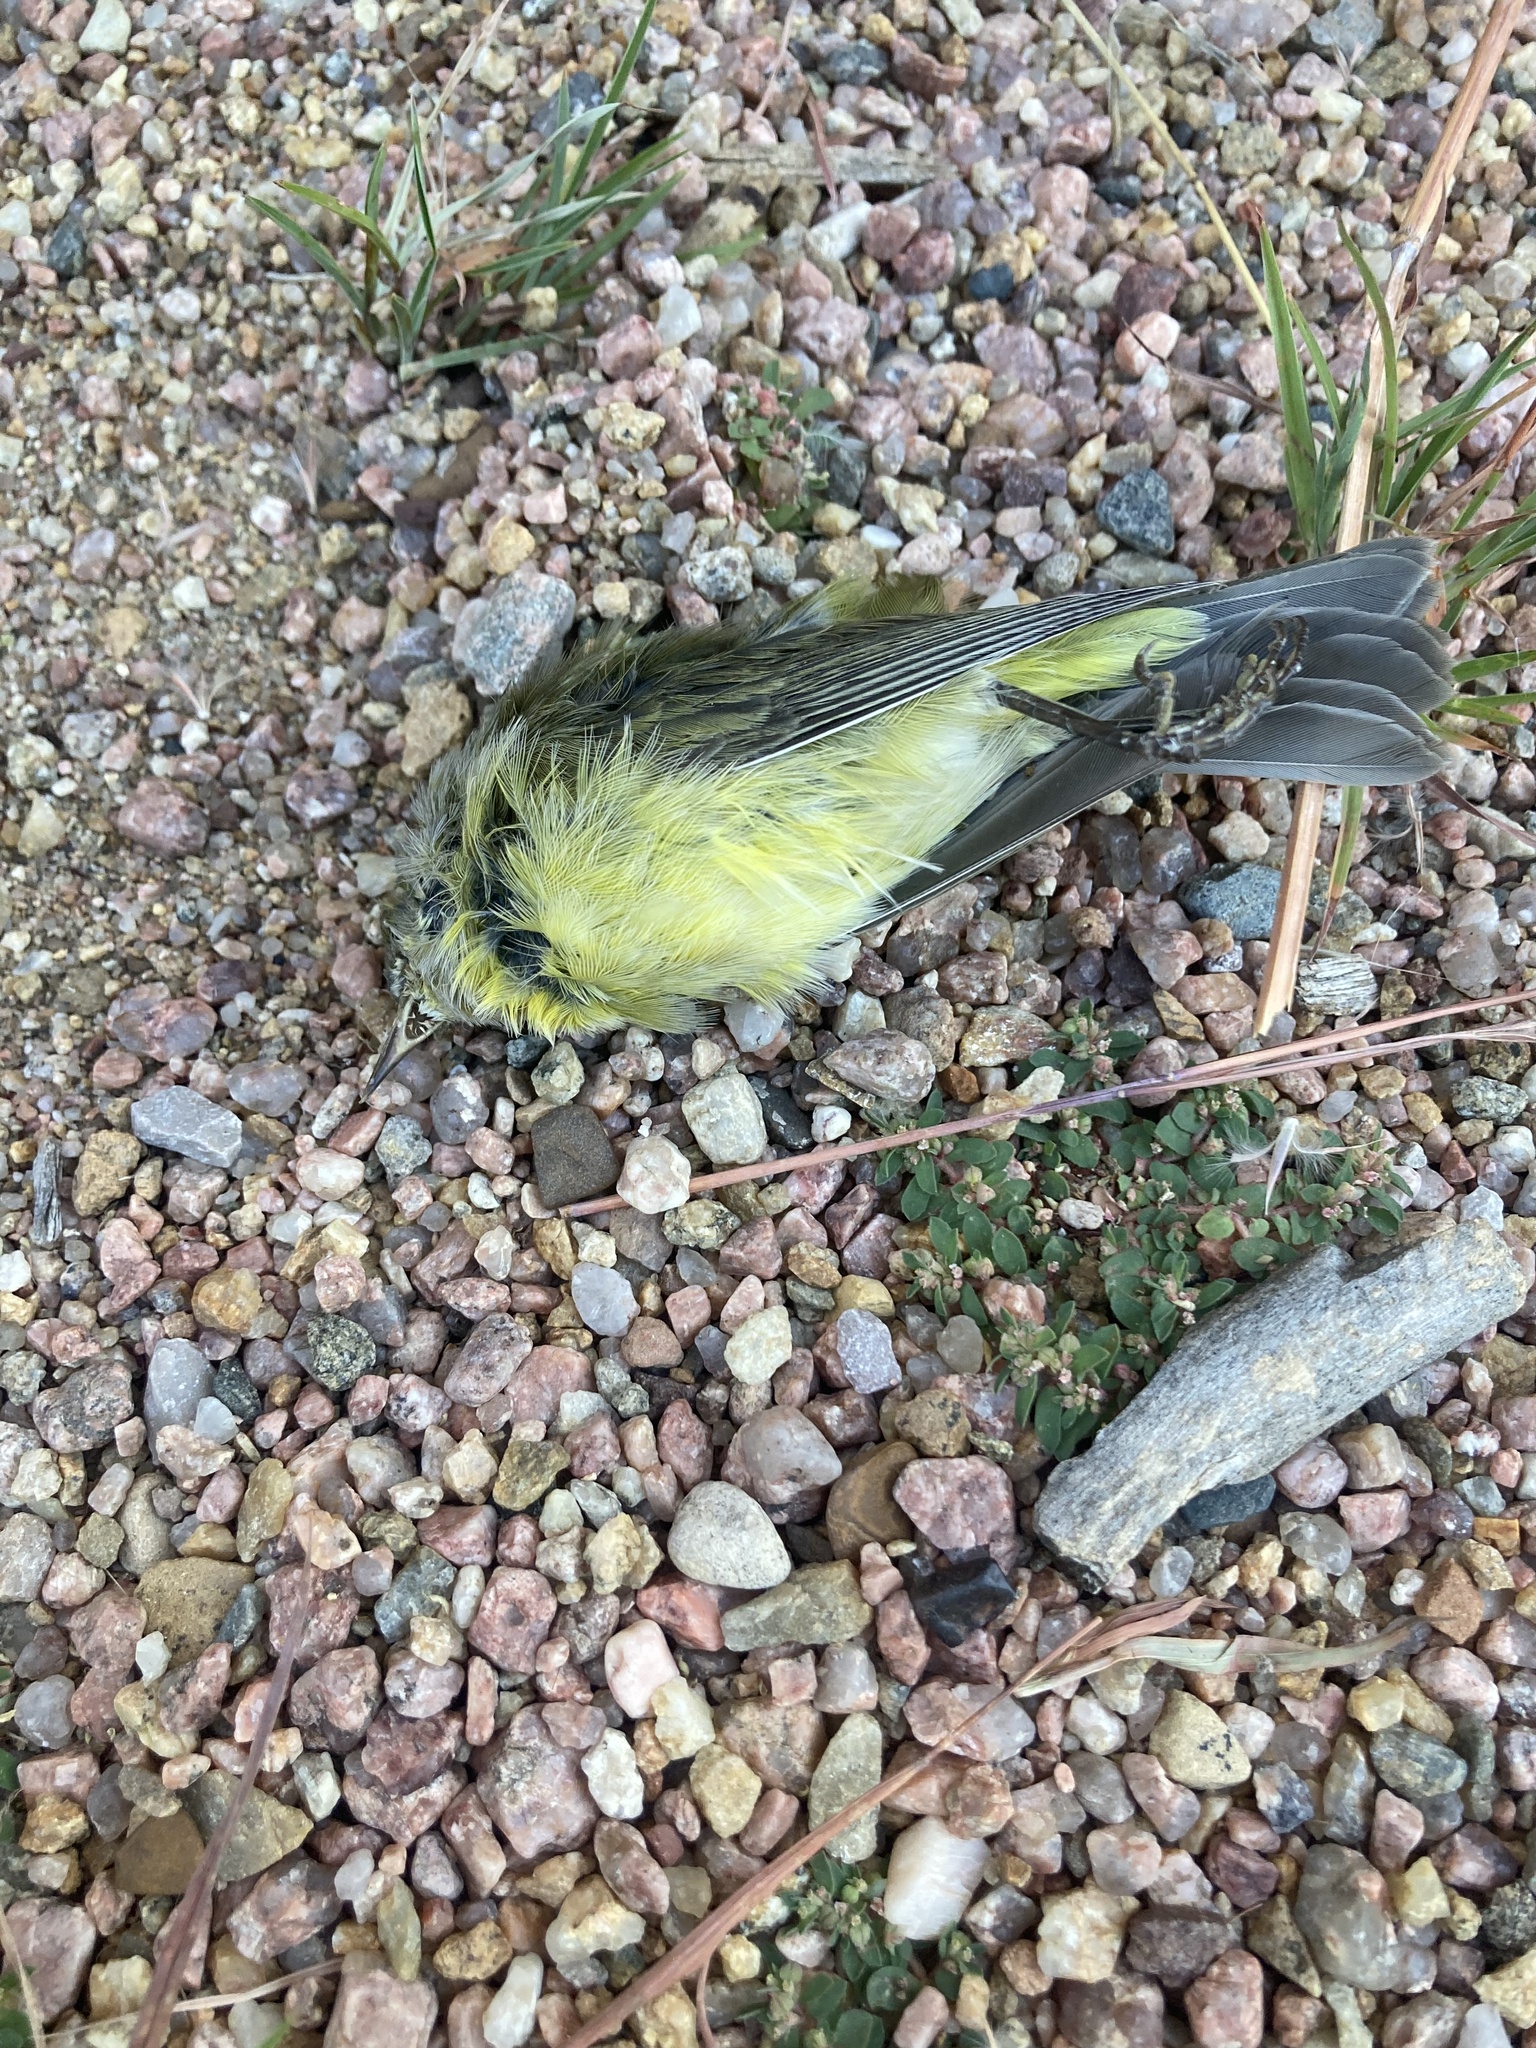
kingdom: Animalia
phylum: Chordata
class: Aves
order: Passeriformes
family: Parulidae
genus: Leiothlypis
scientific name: Leiothlypis celata
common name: Orange-crowned warbler
